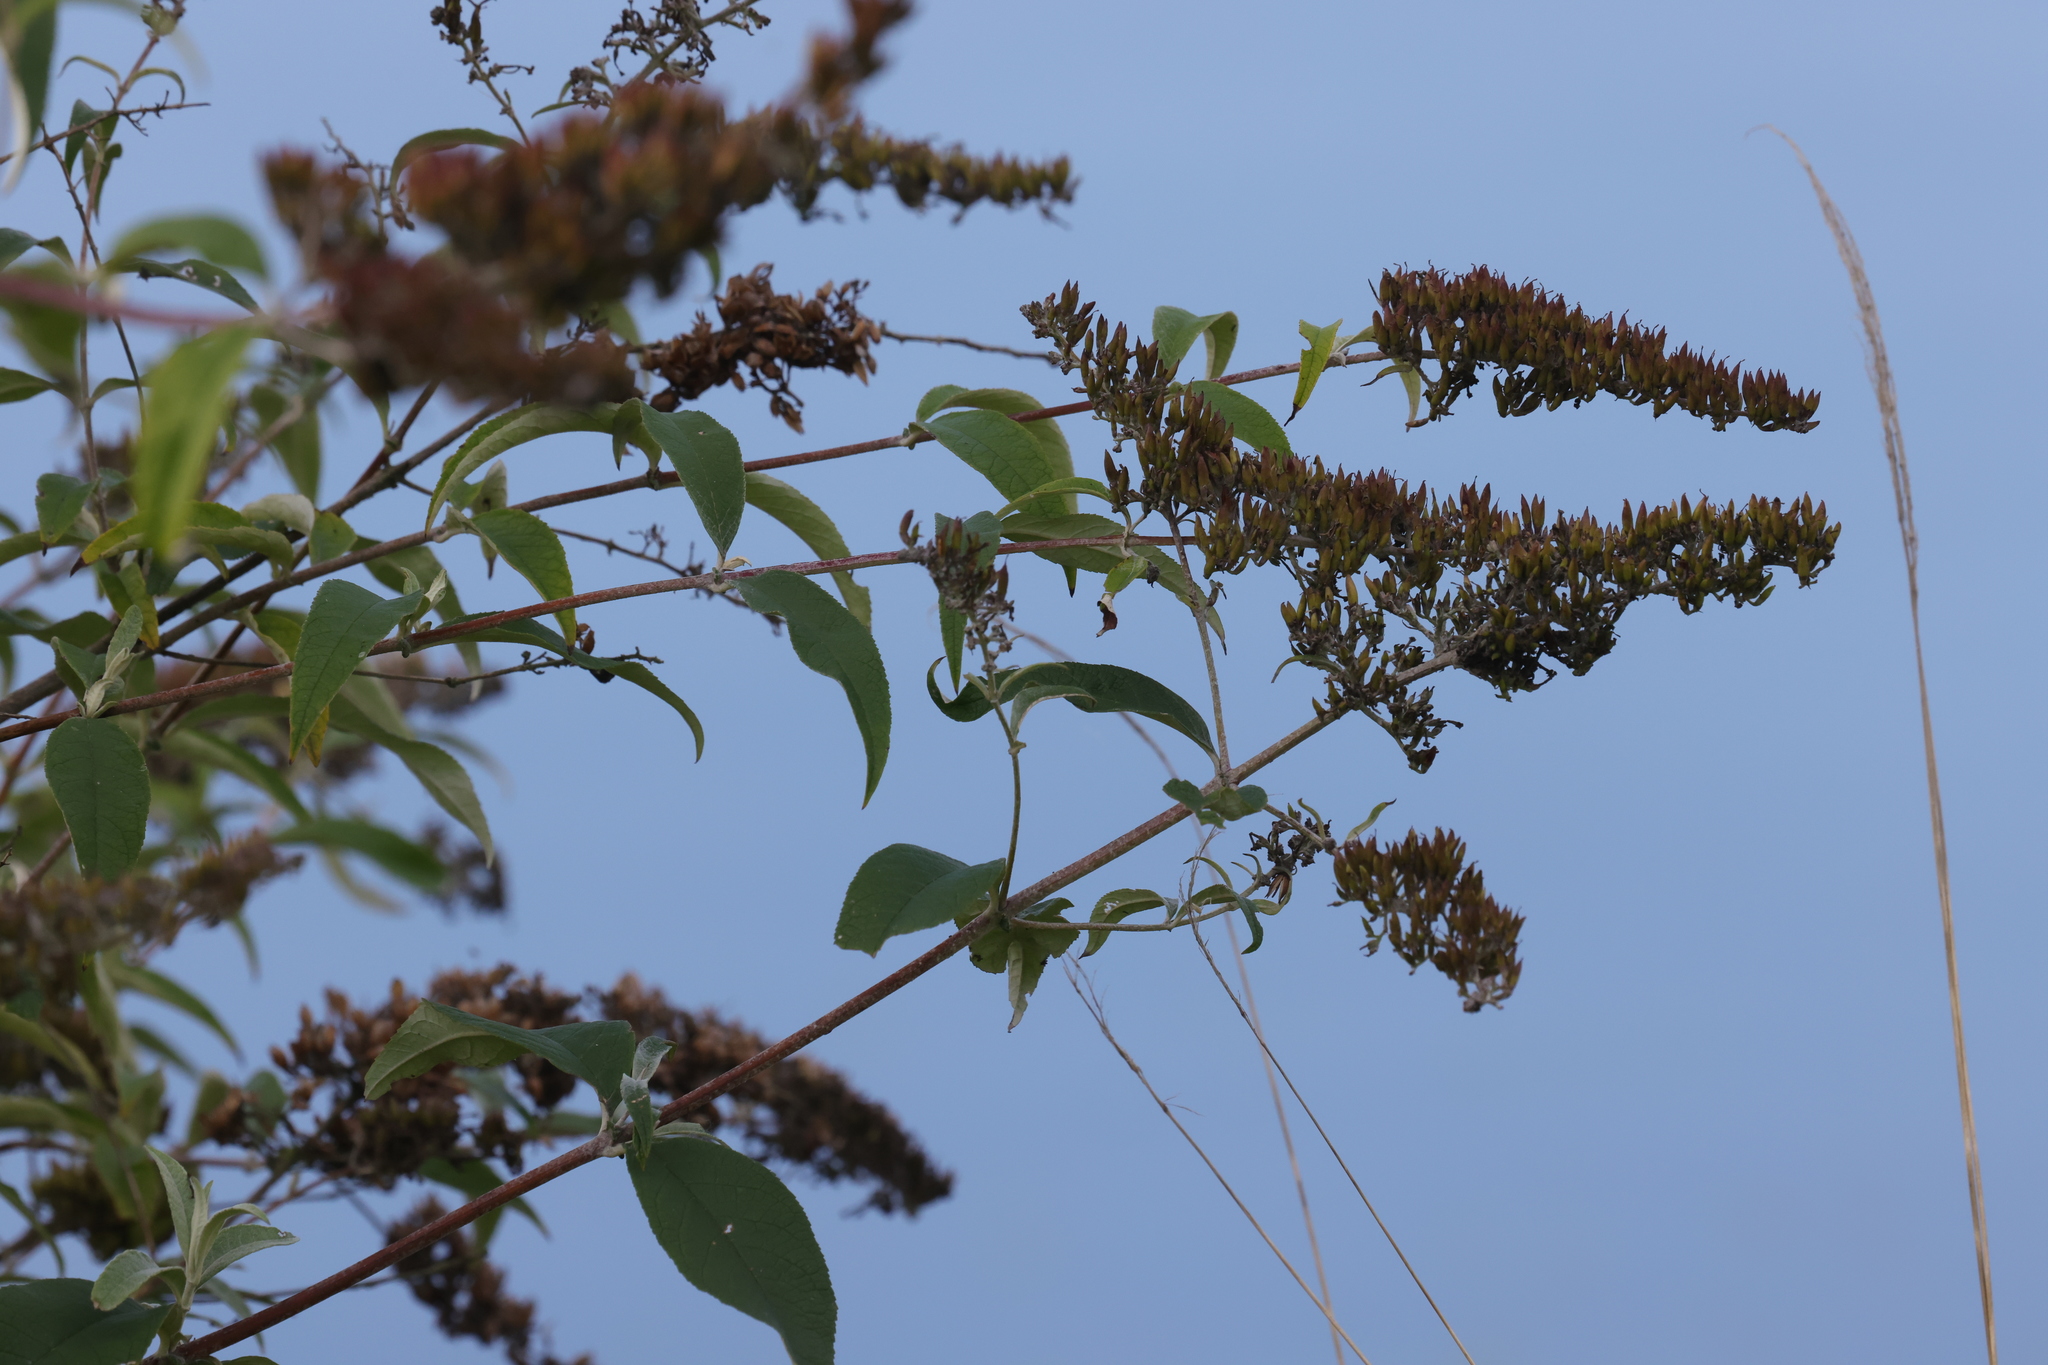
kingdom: Plantae
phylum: Tracheophyta
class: Magnoliopsida
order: Lamiales
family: Scrophulariaceae
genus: Buddleja
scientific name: Buddleja davidii
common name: Butterfly-bush
